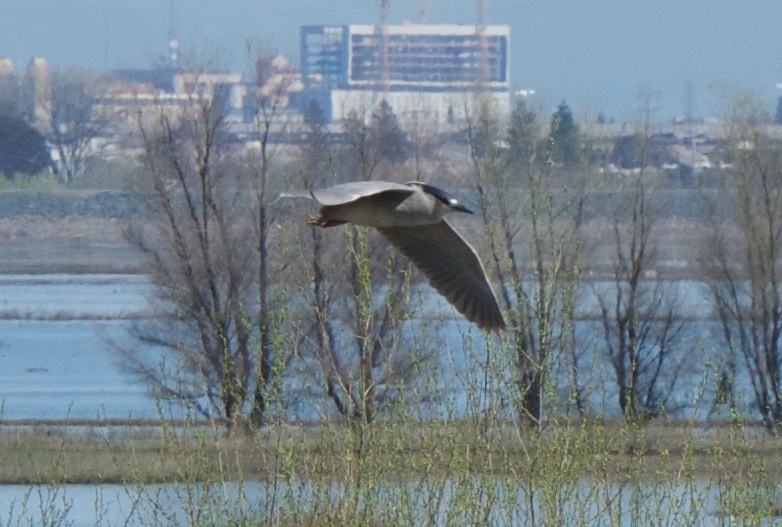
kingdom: Animalia
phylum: Chordata
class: Aves
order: Pelecaniformes
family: Ardeidae
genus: Nycticorax
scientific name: Nycticorax nycticorax
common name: Black-crowned night heron
